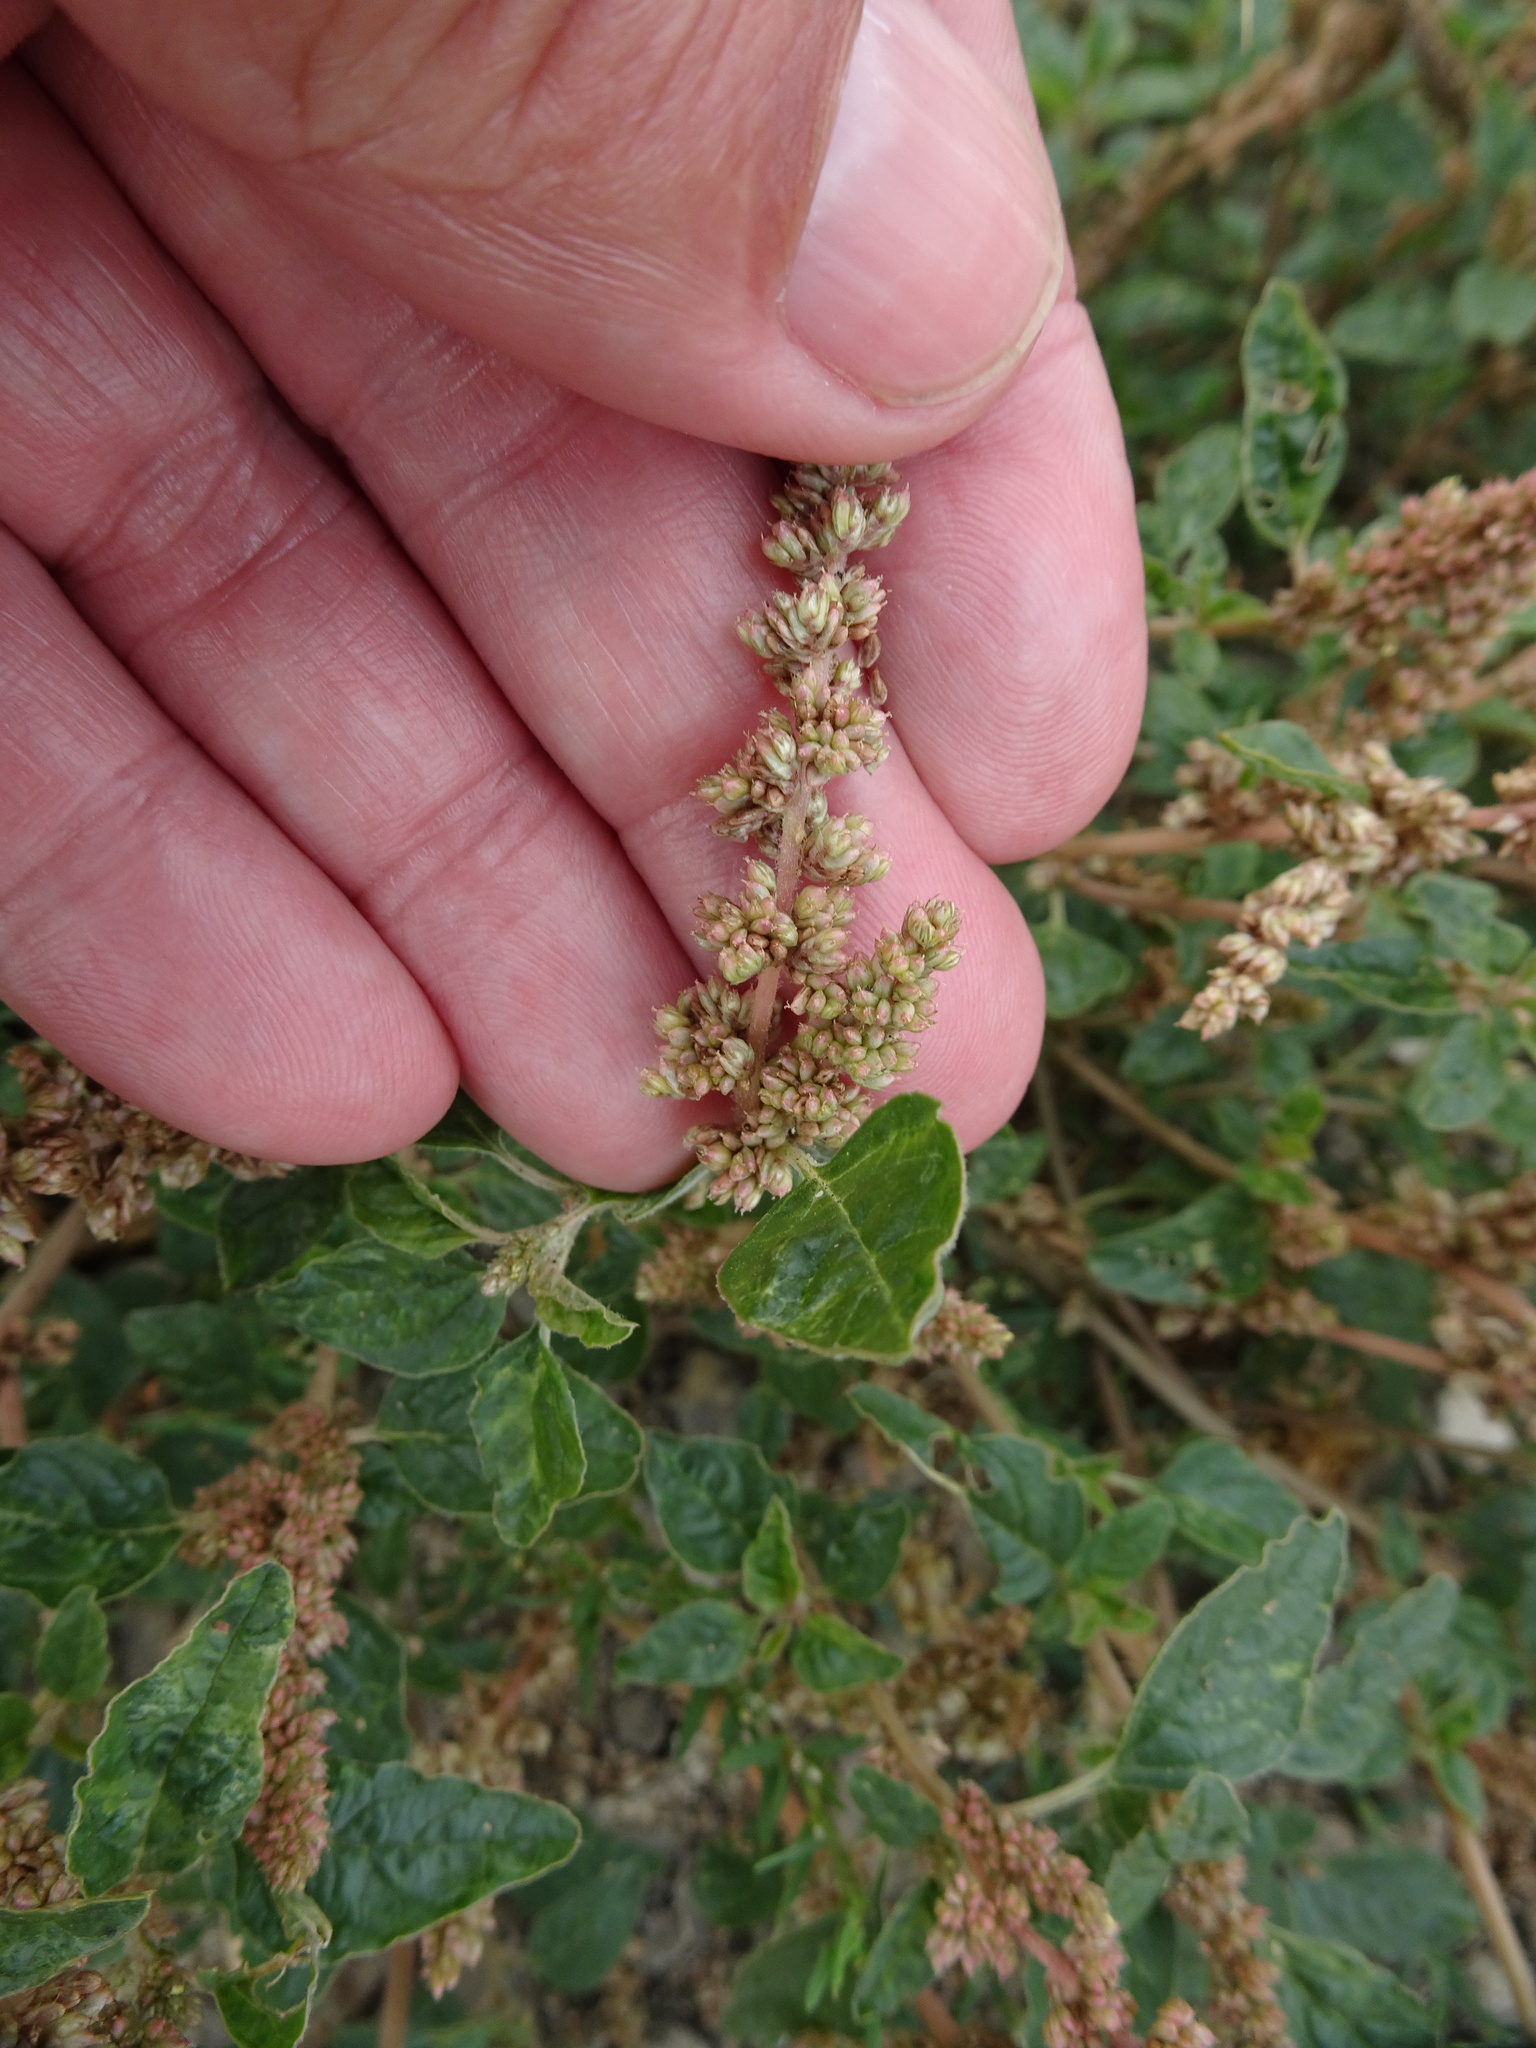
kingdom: Plantae
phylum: Tracheophyta
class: Magnoliopsida
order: Caryophyllales
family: Amaranthaceae
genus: Amaranthus
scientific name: Amaranthus deflexus
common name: Perennial pigweed
